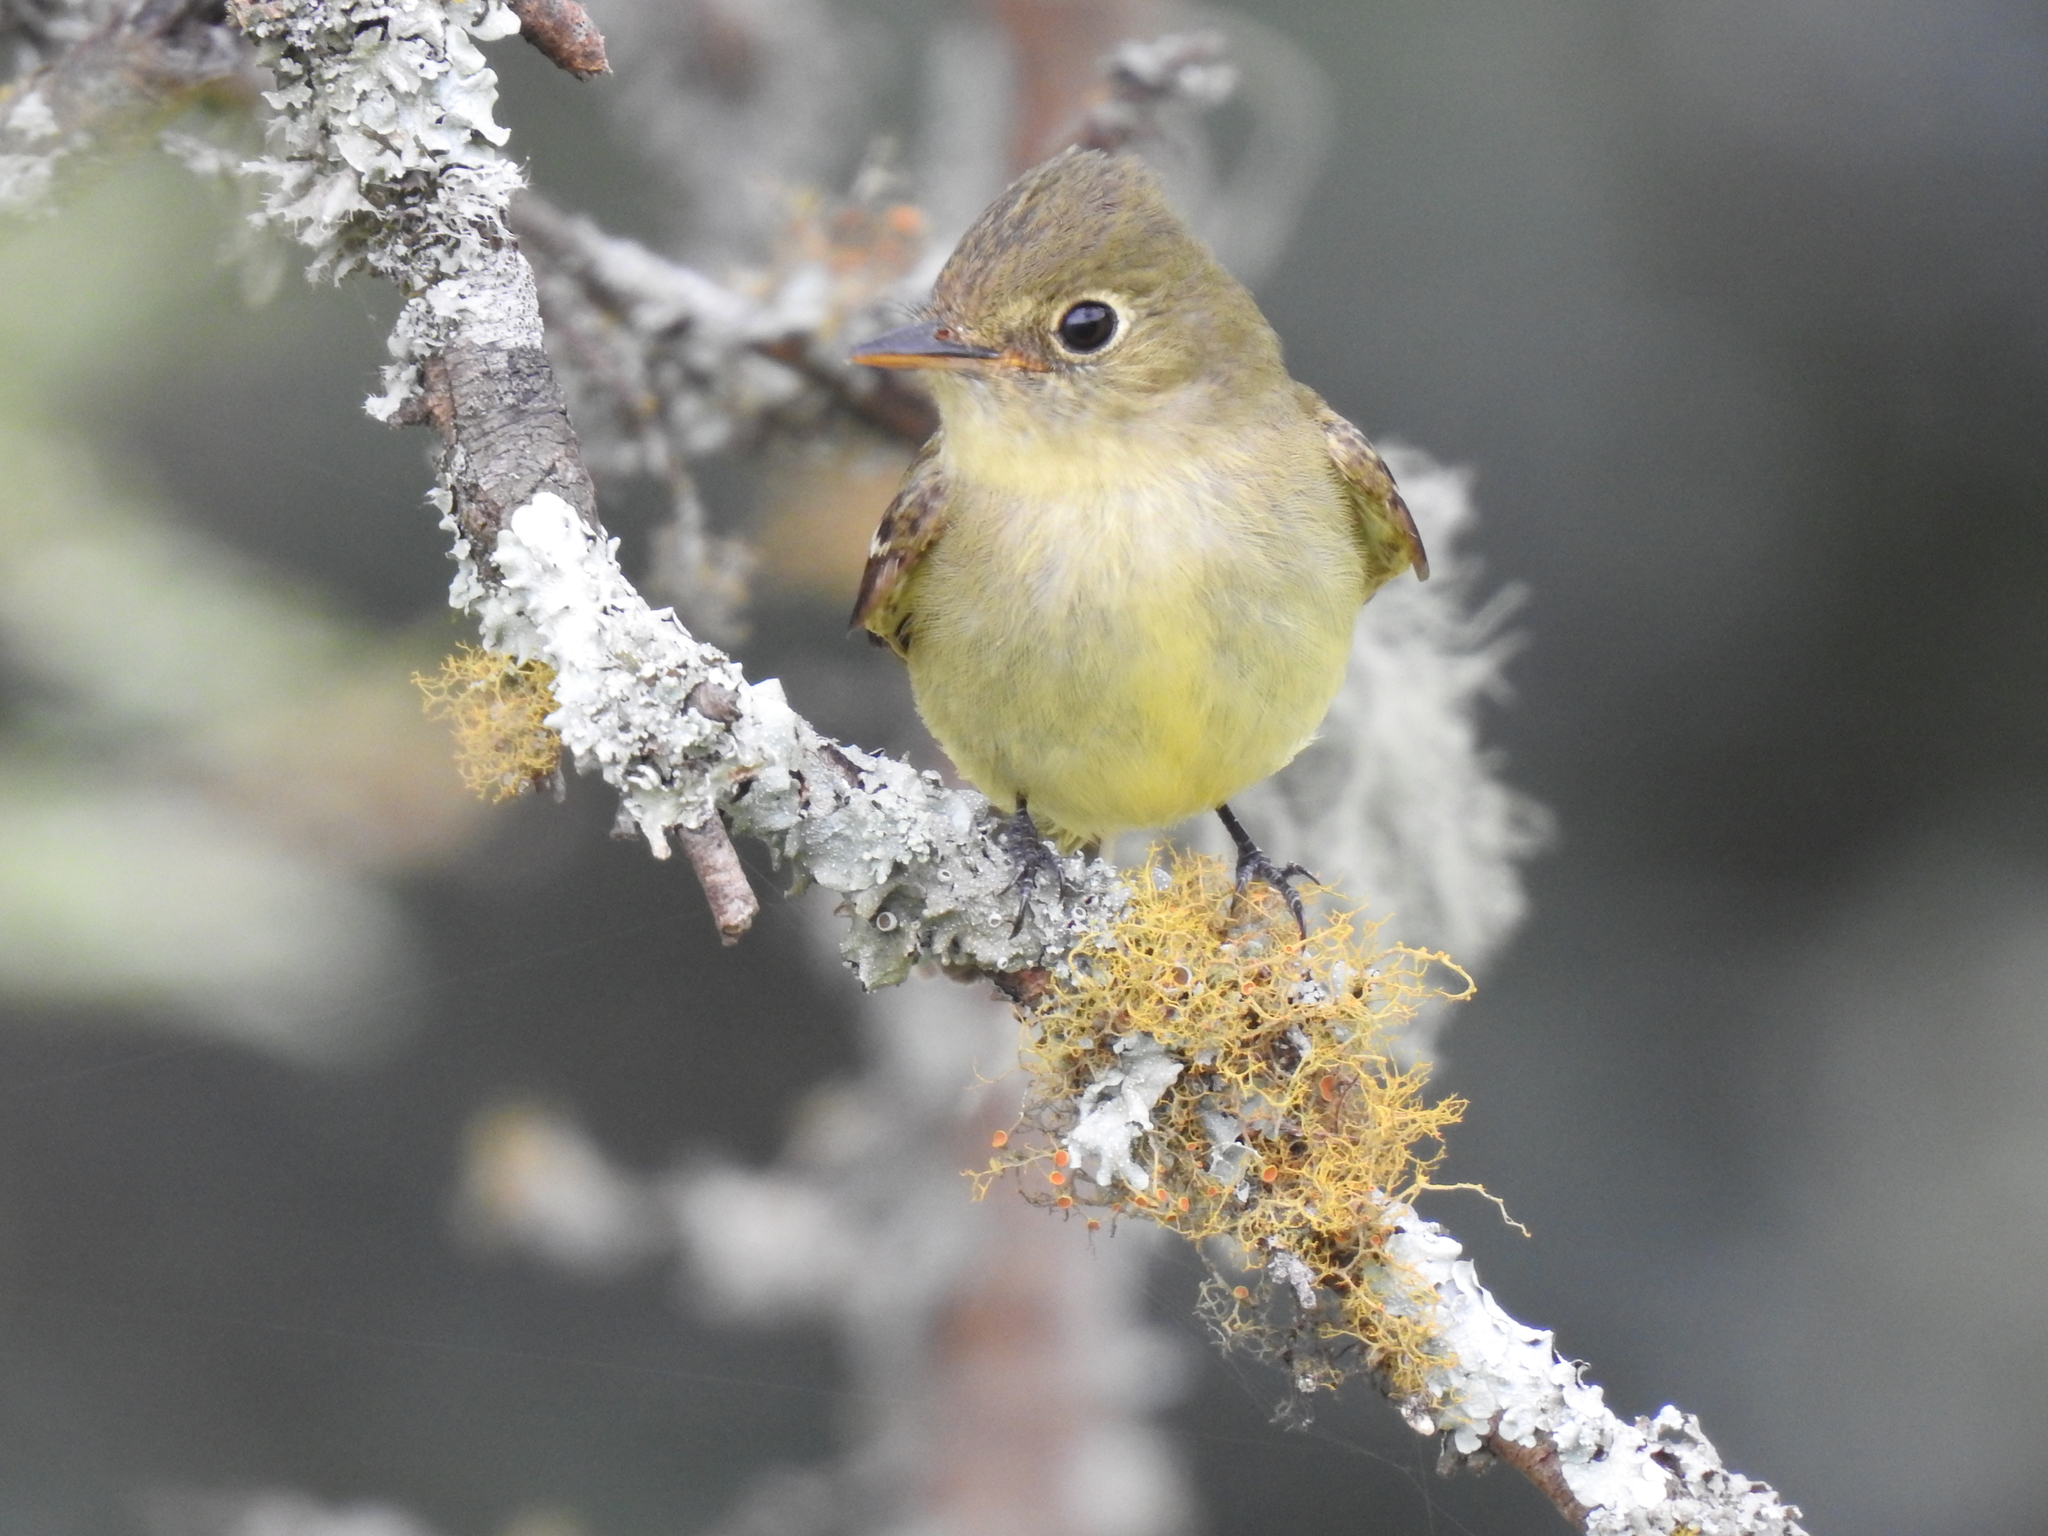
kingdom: Animalia
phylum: Chordata
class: Aves
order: Passeriformes
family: Tyrannidae
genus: Empidonax
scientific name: Empidonax flaviventris
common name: Yellow-bellied flycatcher
